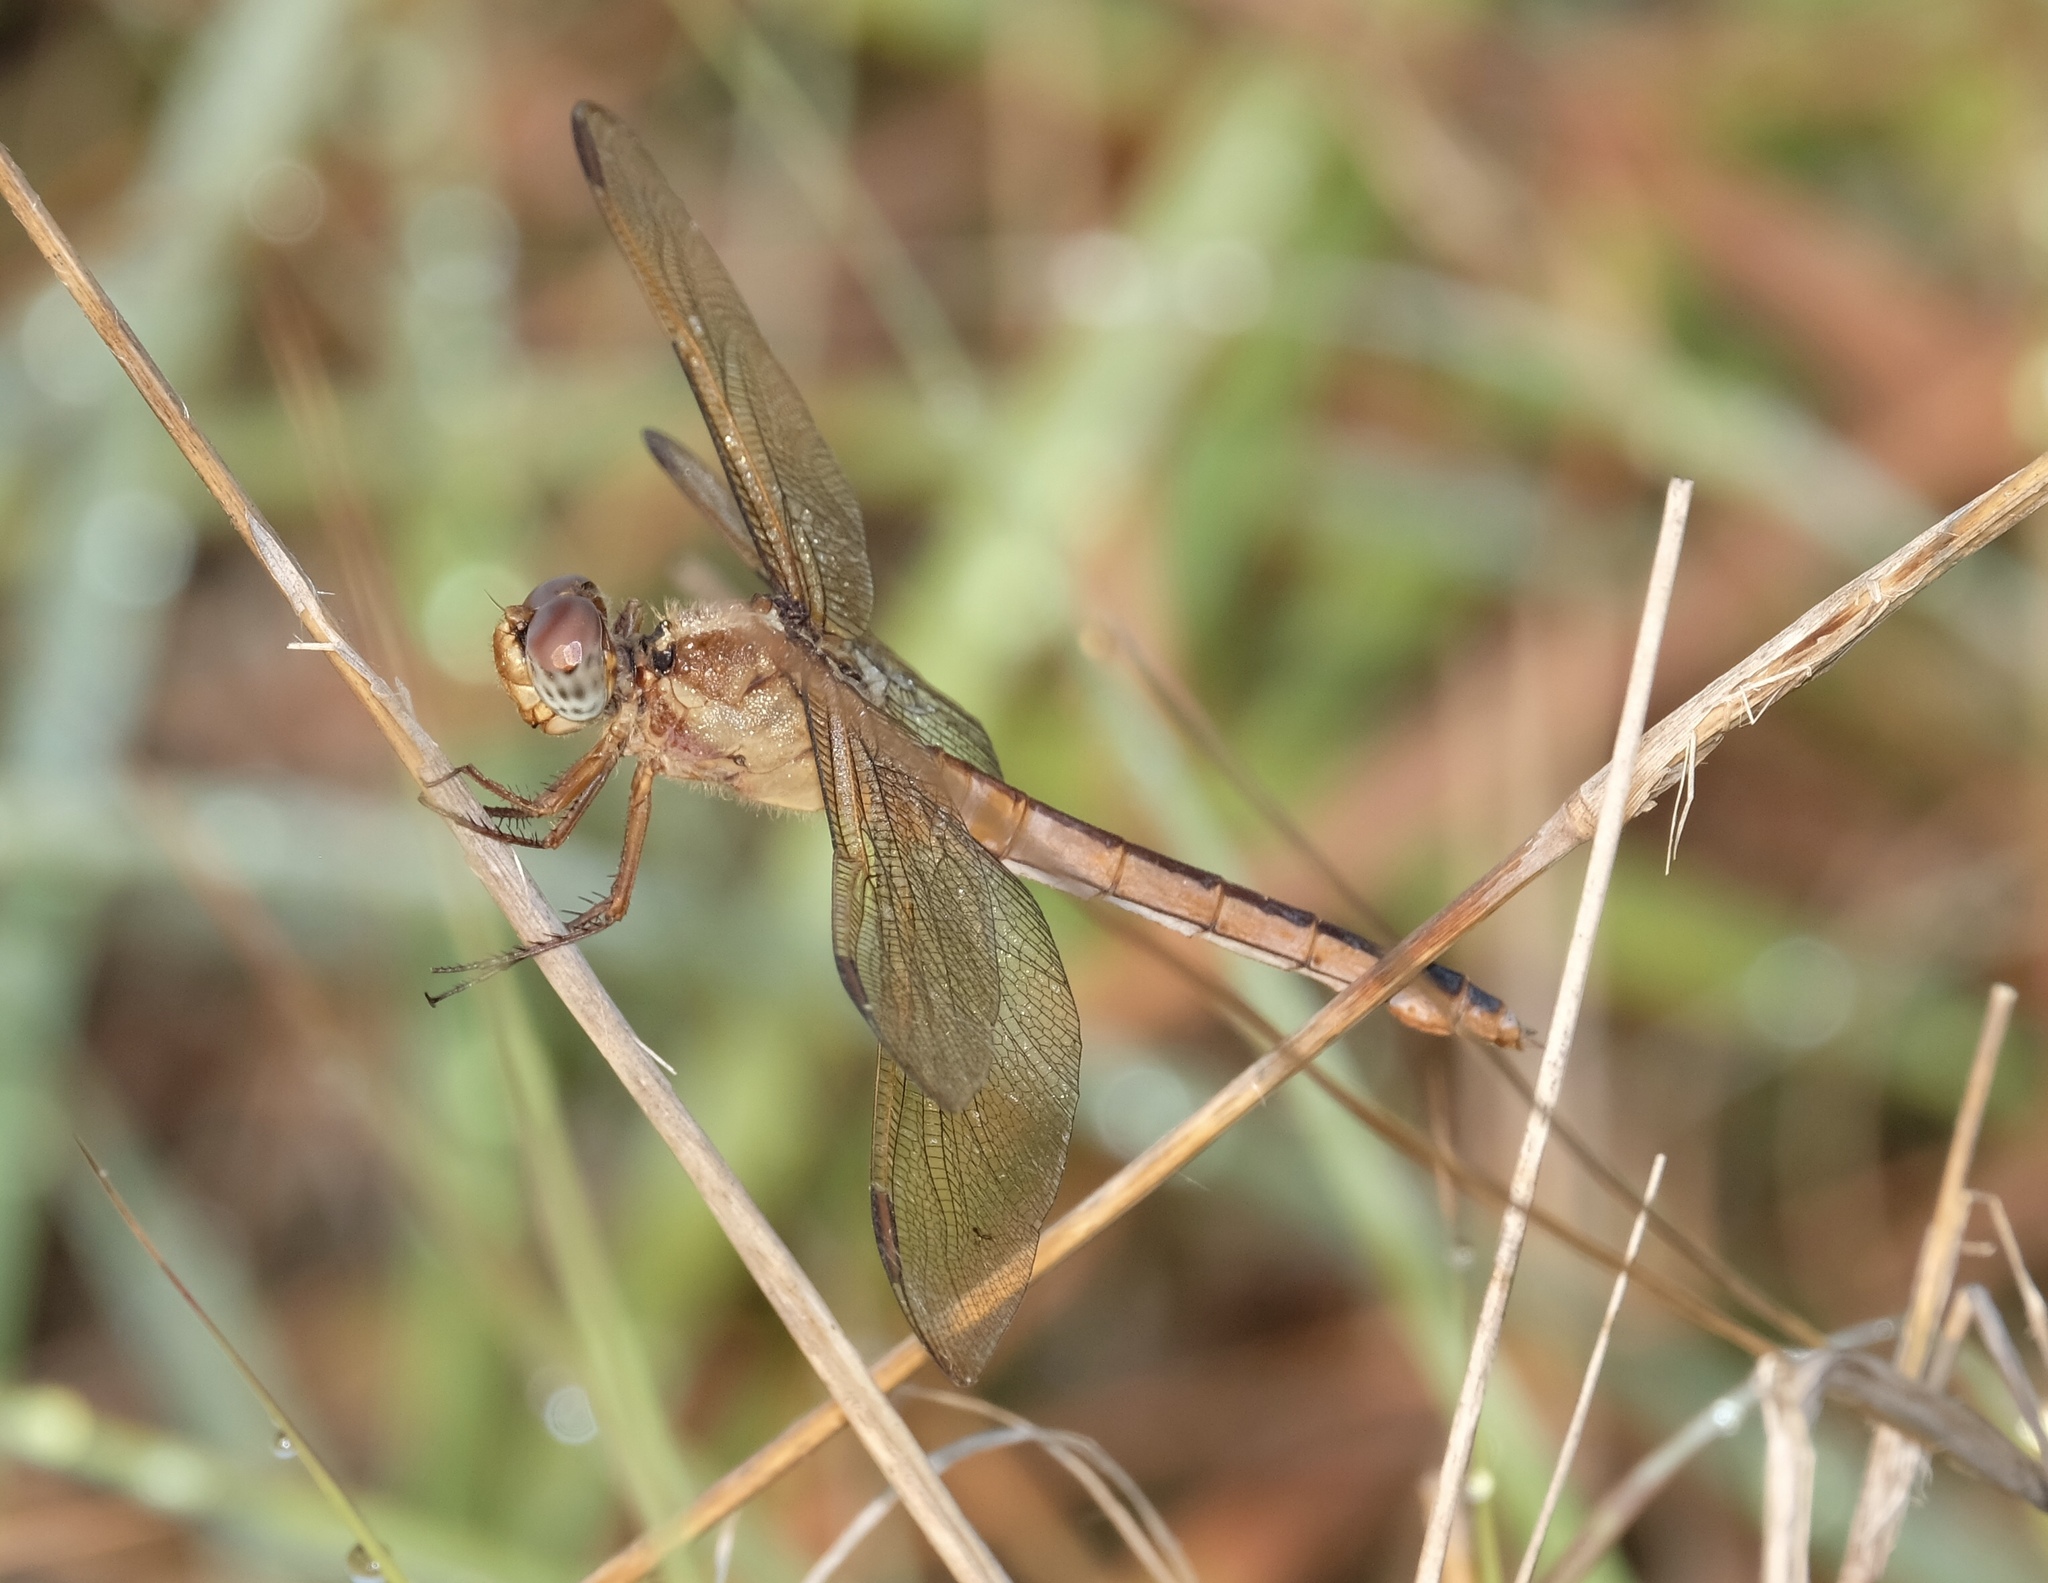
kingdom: Animalia
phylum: Arthropoda
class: Insecta
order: Odonata
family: Libellulidae
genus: Libellula
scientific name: Libellula needhami
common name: Needham's skimmer
